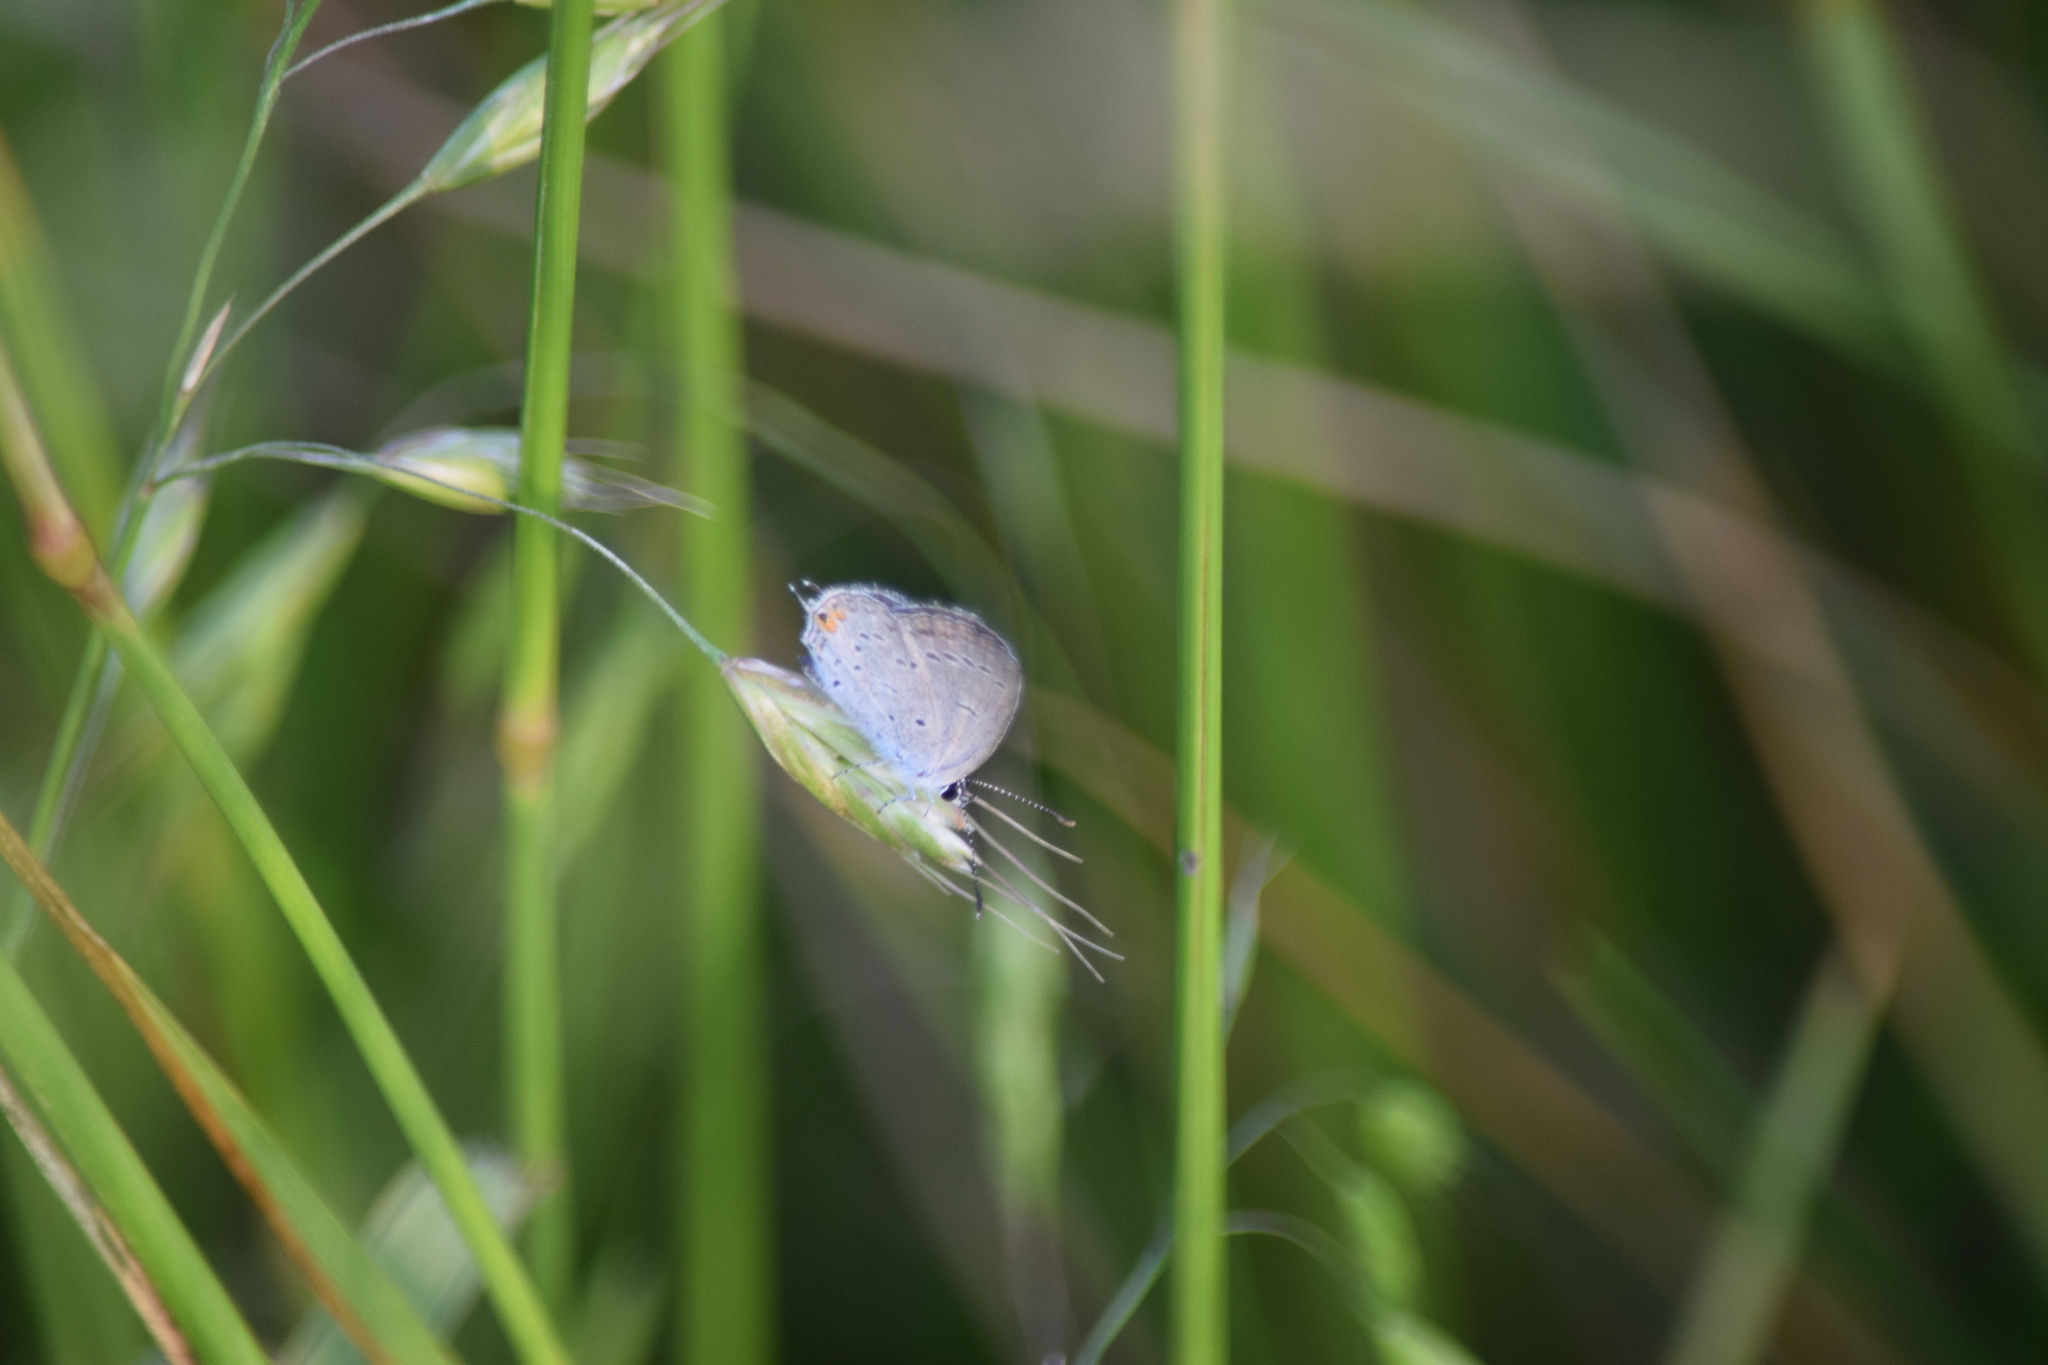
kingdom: Animalia
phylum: Arthropoda
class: Insecta
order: Lepidoptera
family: Lycaenidae
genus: Elkalyce
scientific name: Elkalyce comyntas
